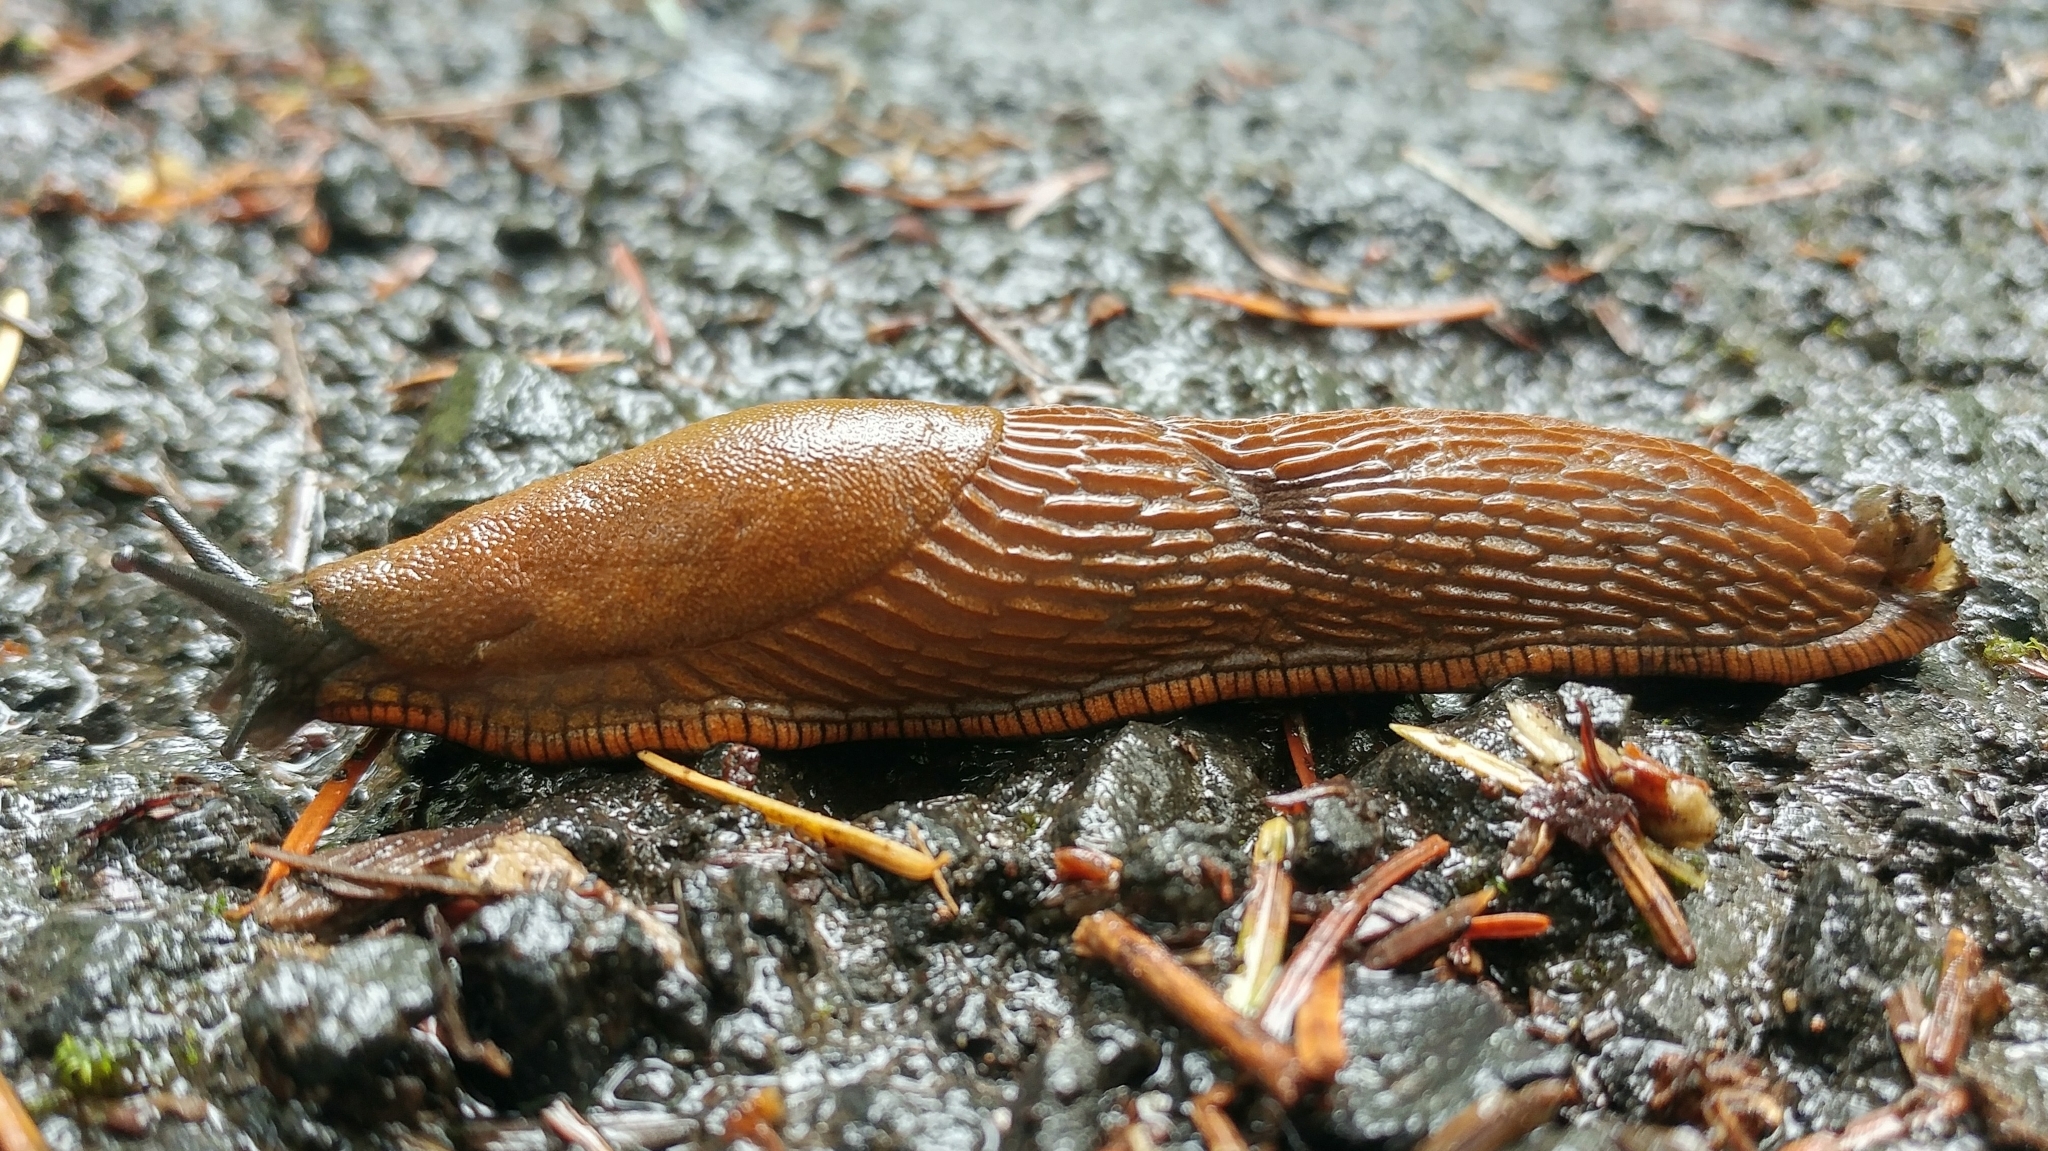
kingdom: Animalia
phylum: Mollusca
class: Gastropoda
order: Stylommatophora
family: Arionidae
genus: Arion
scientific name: Arion
